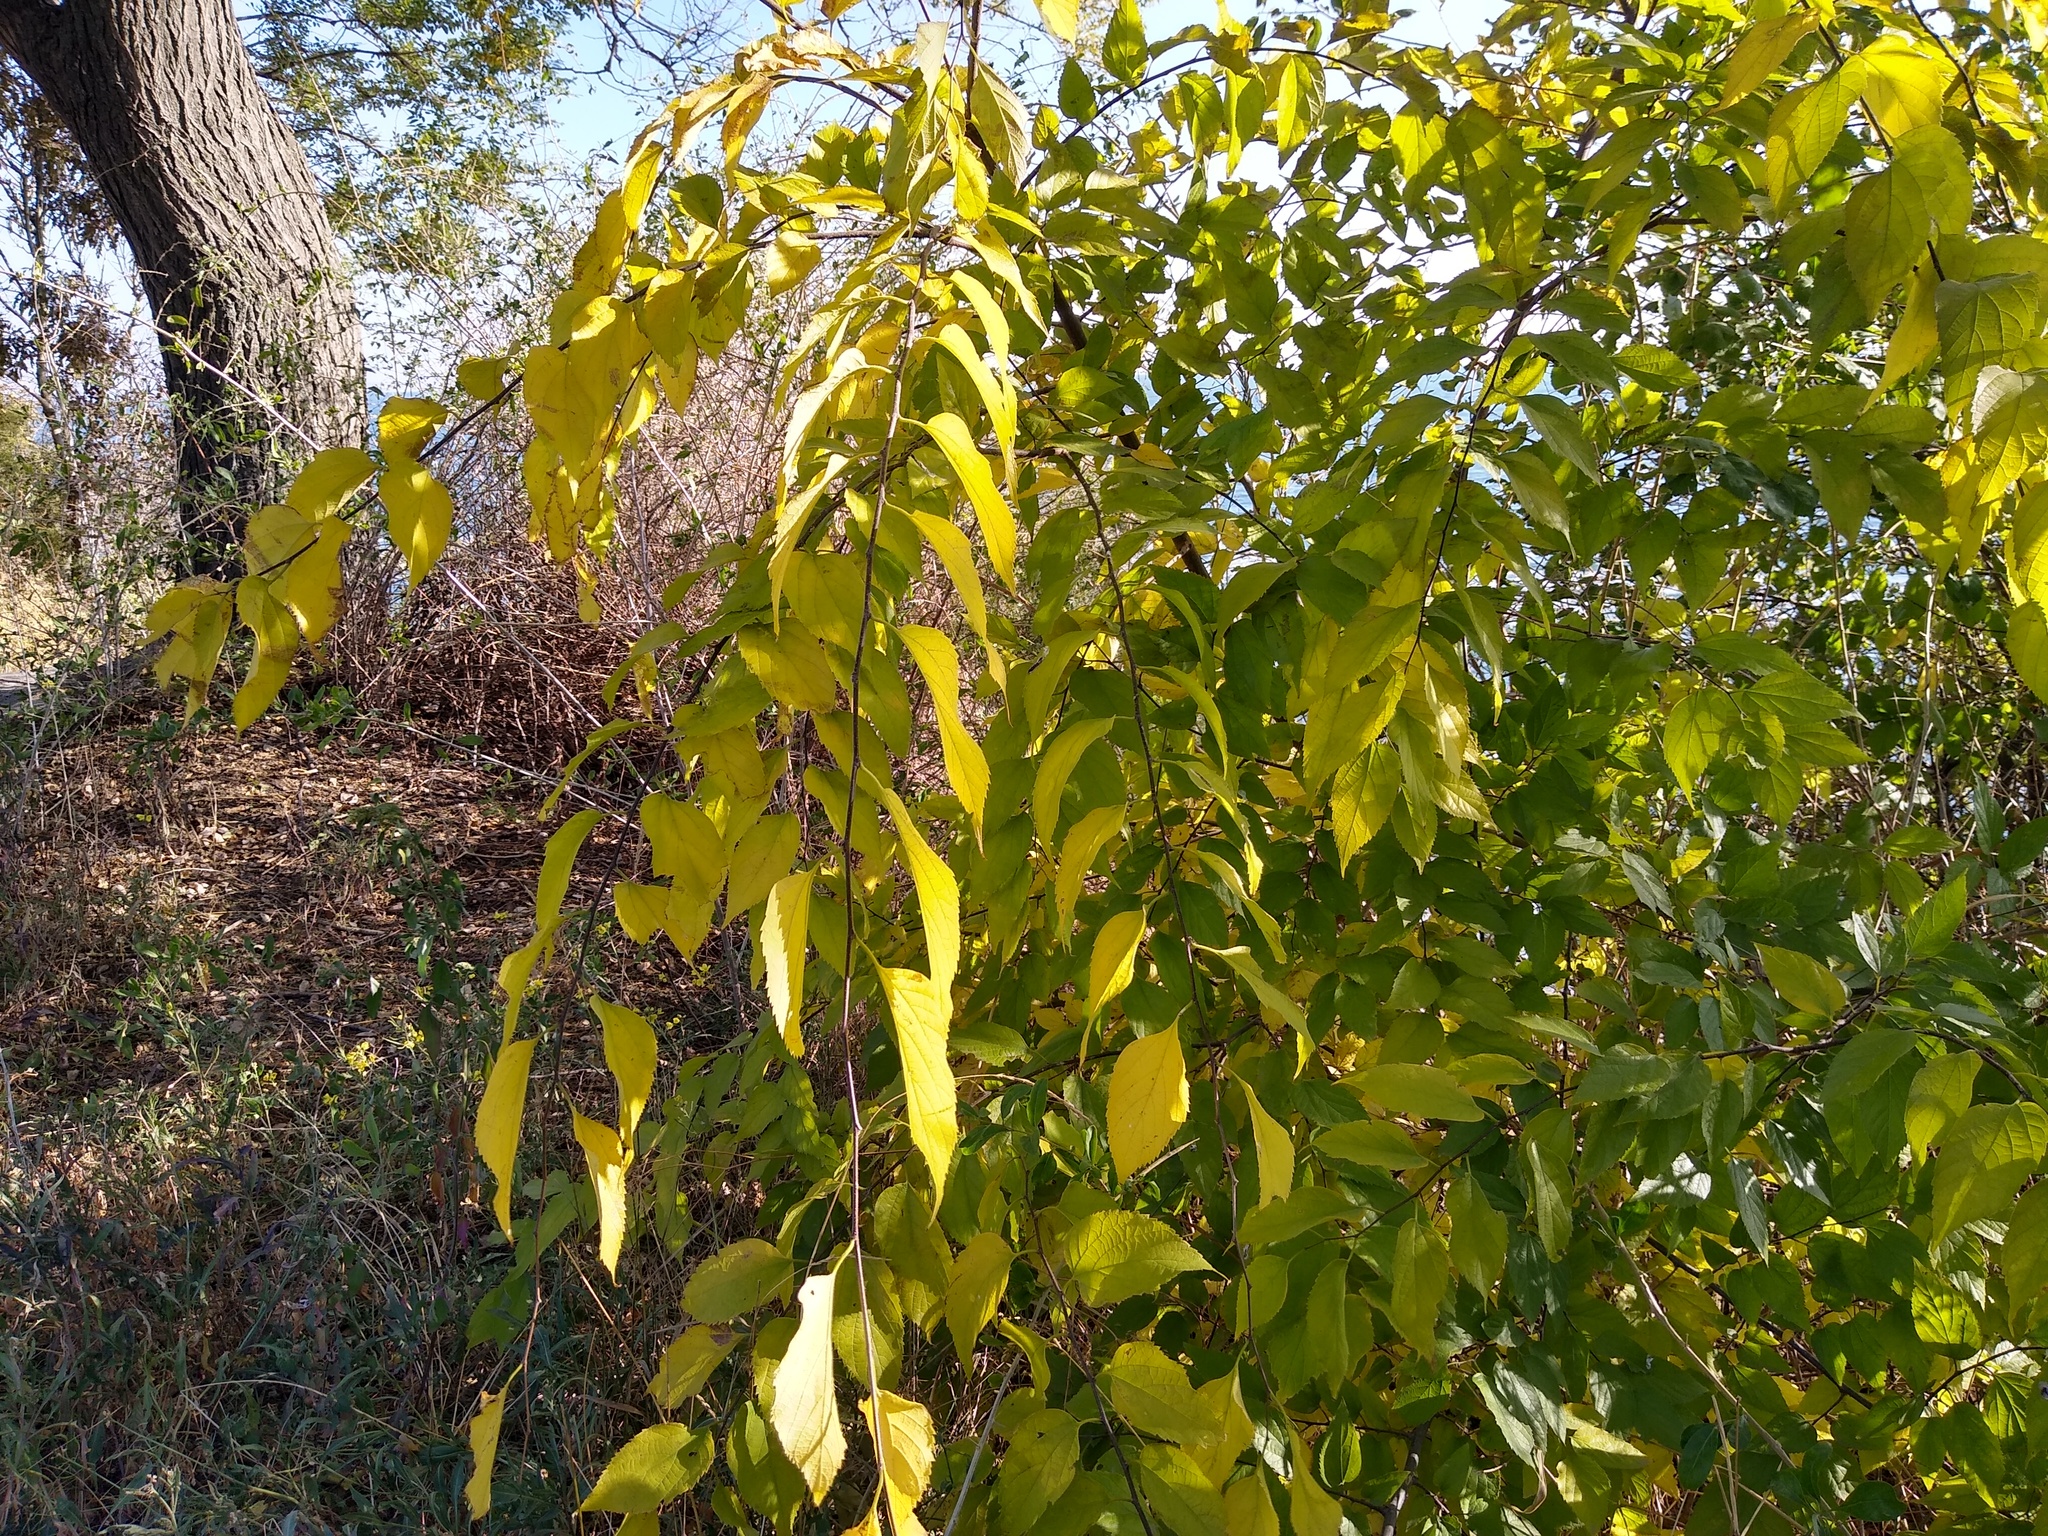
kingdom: Plantae
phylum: Tracheophyta
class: Magnoliopsida
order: Rosales
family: Cannabaceae
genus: Celtis
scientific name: Celtis occidentalis
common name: Common hackberry
